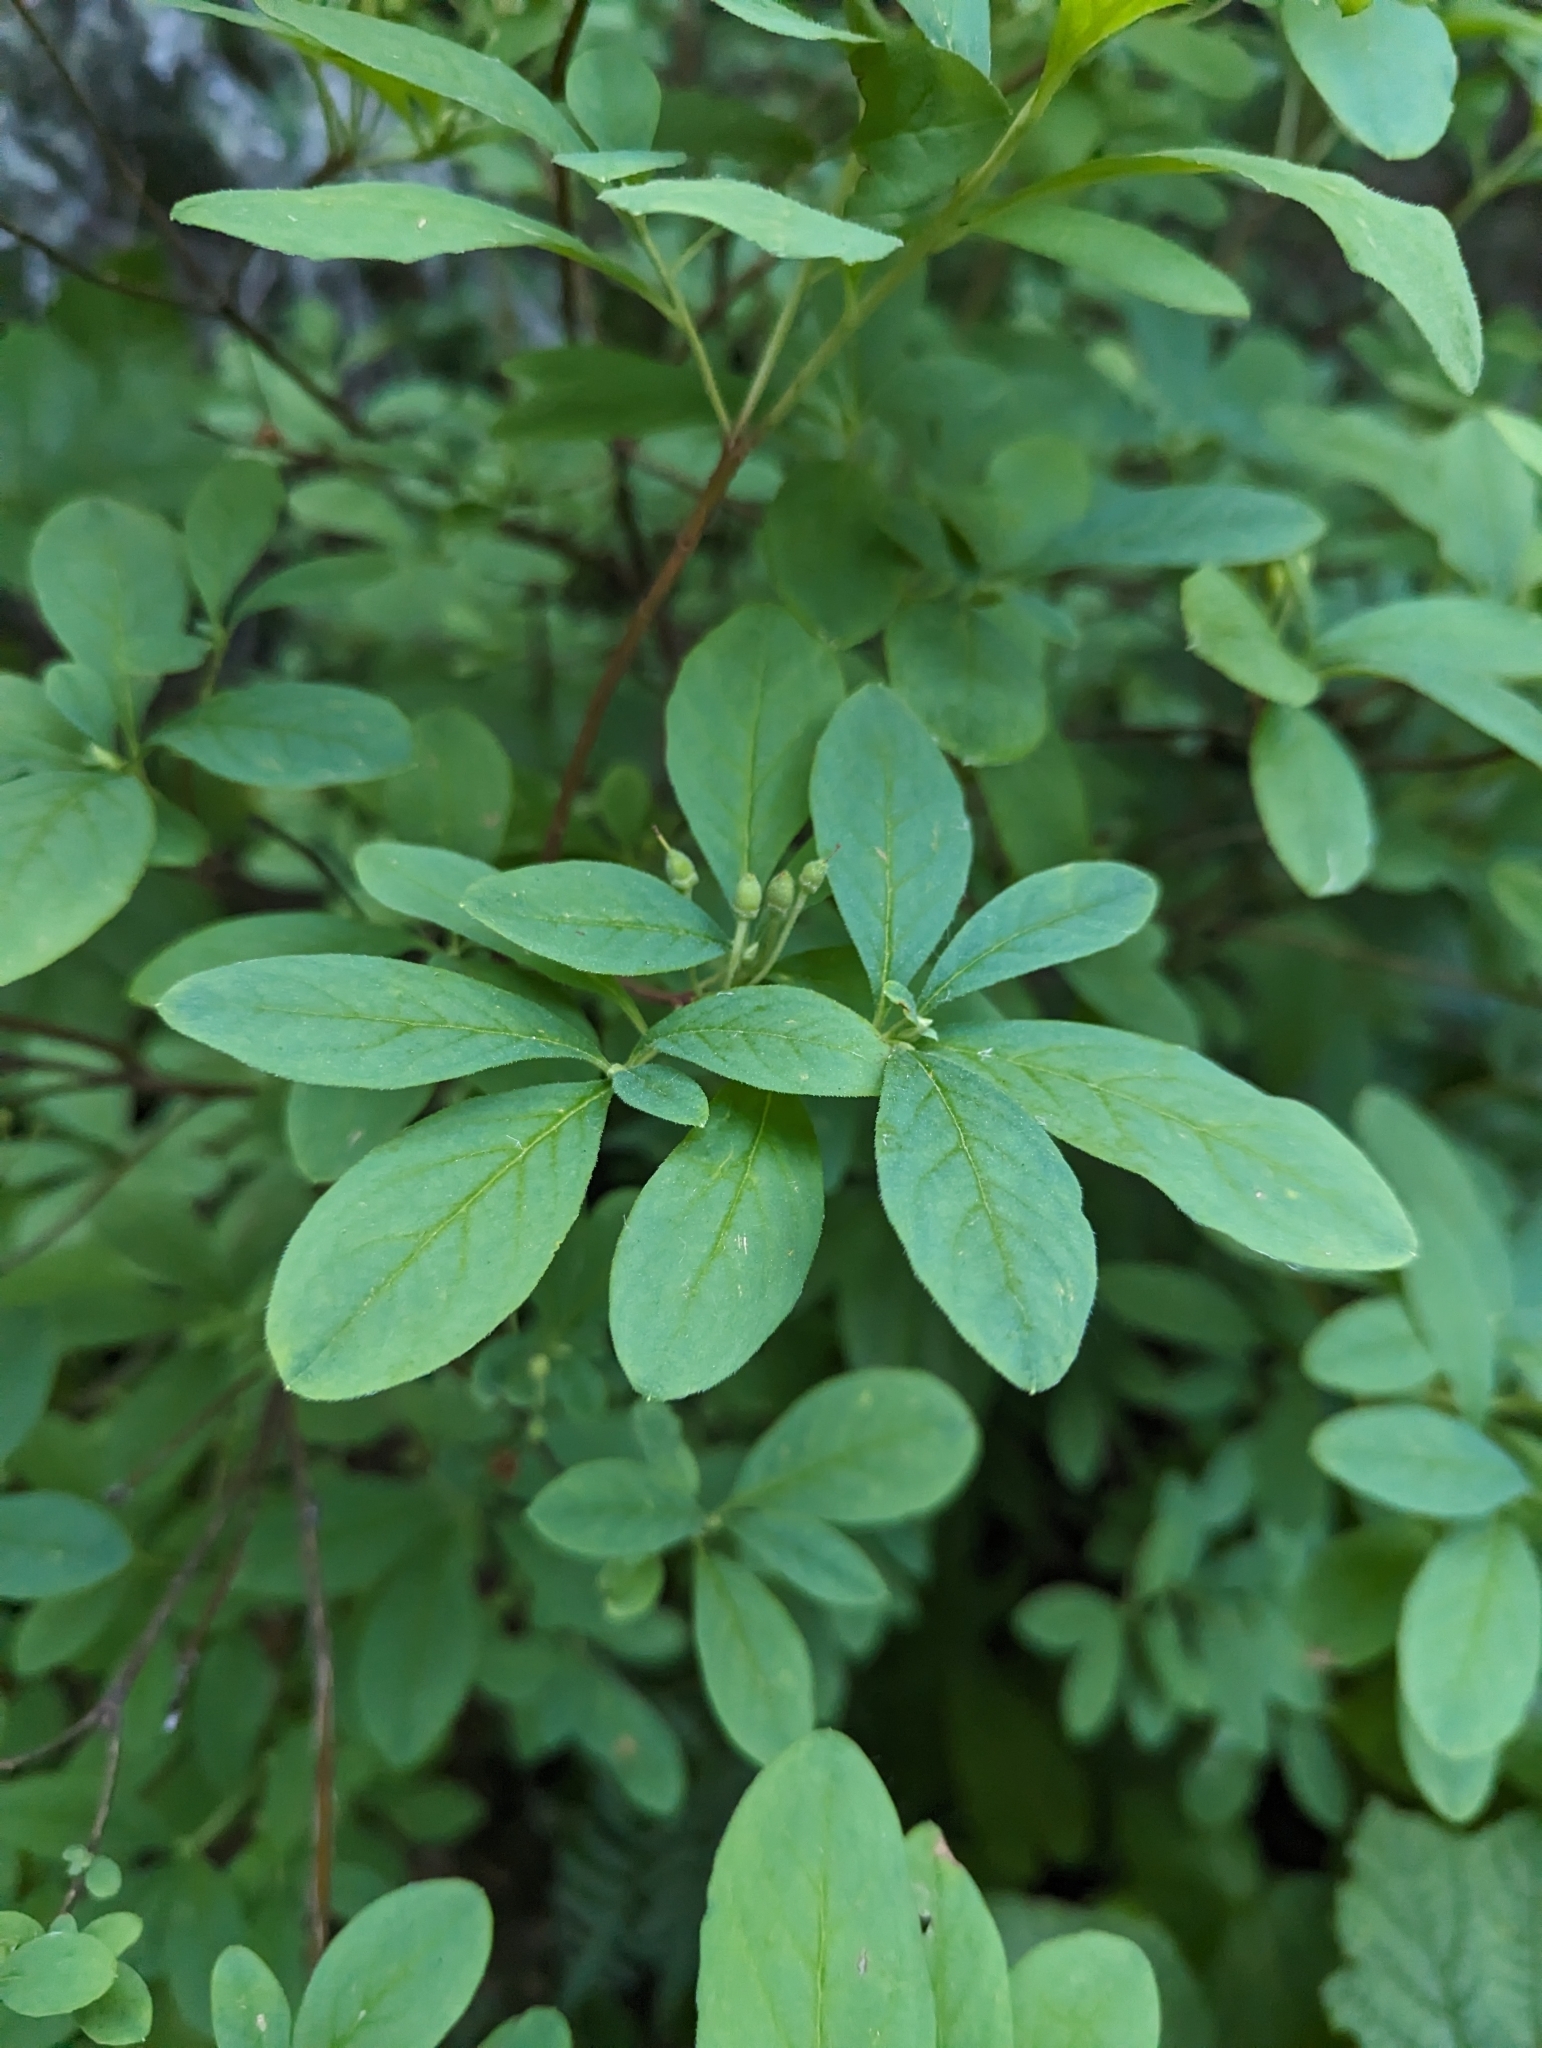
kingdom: Plantae
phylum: Tracheophyta
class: Magnoliopsida
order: Ericales
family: Ericaceae
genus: Rhododendron
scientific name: Rhododendron menziesii
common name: Pacific menziesia
